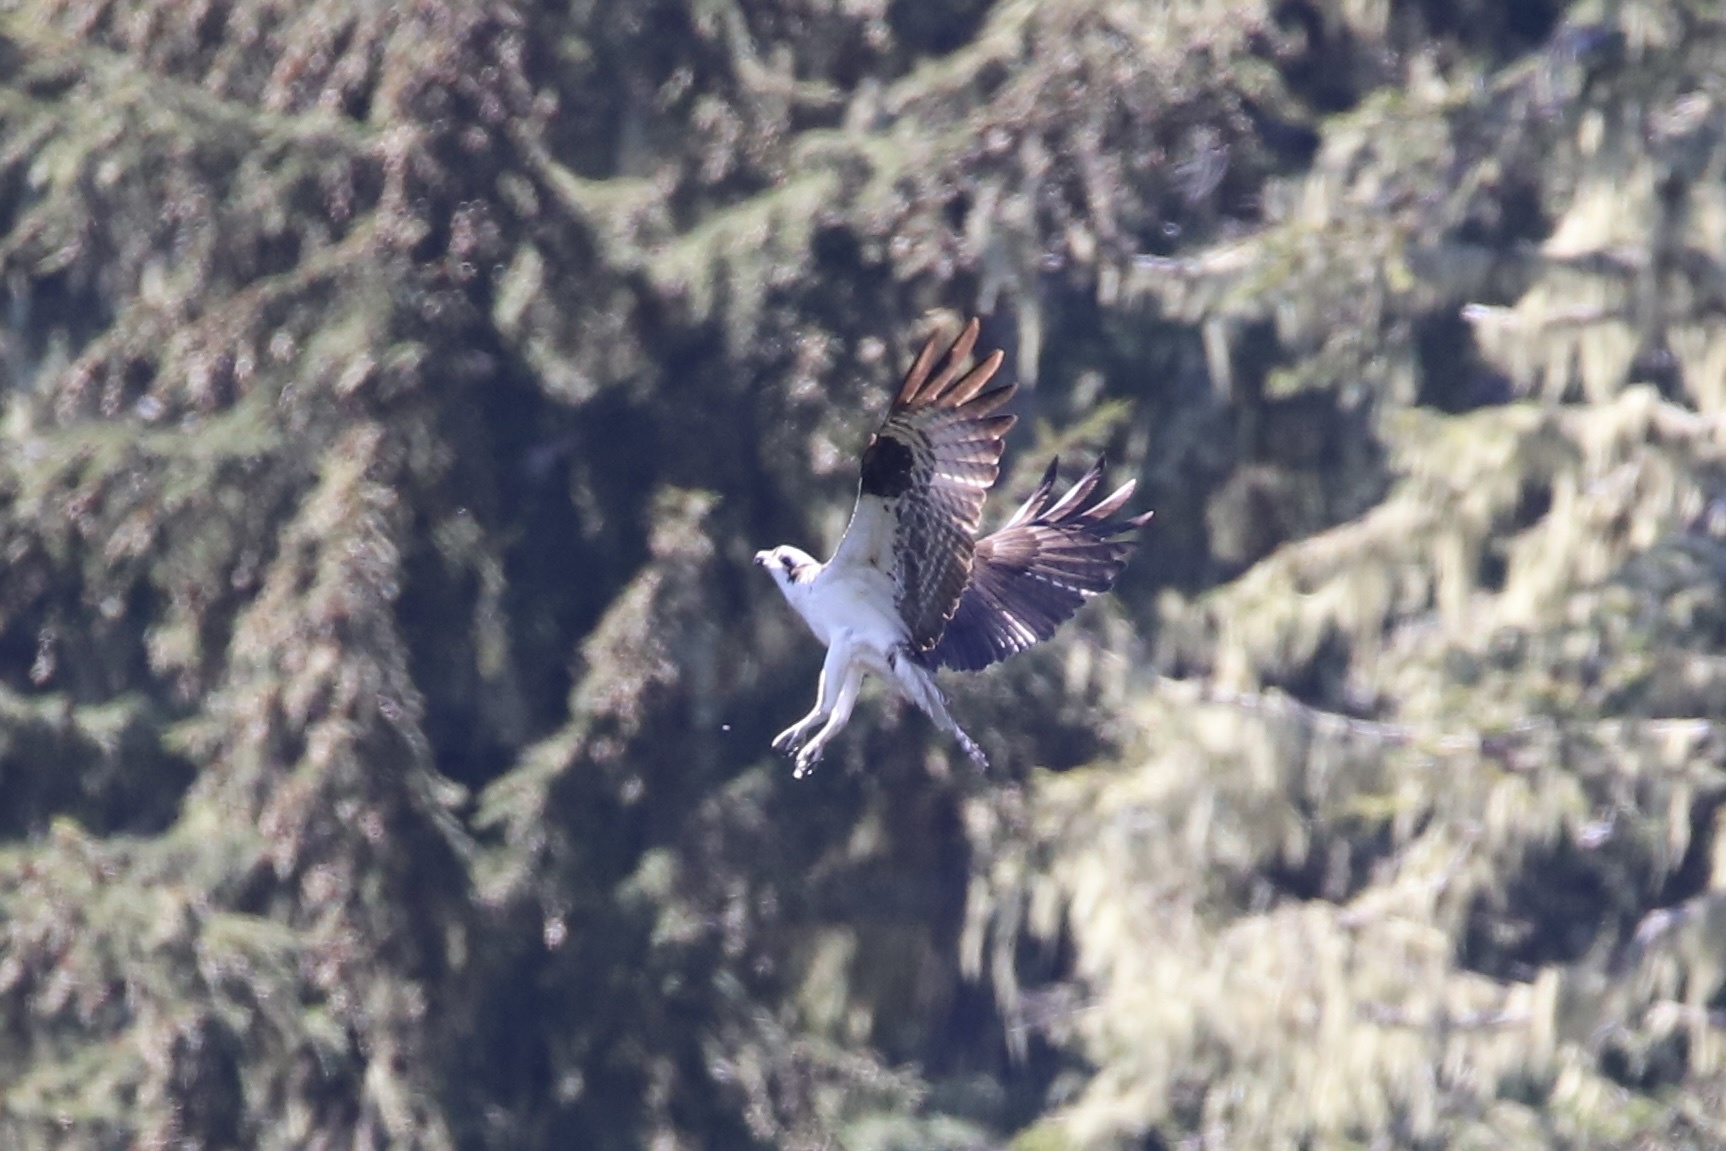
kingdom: Animalia
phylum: Chordata
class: Aves
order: Accipitriformes
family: Pandionidae
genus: Pandion
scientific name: Pandion haliaetus
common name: Osprey
